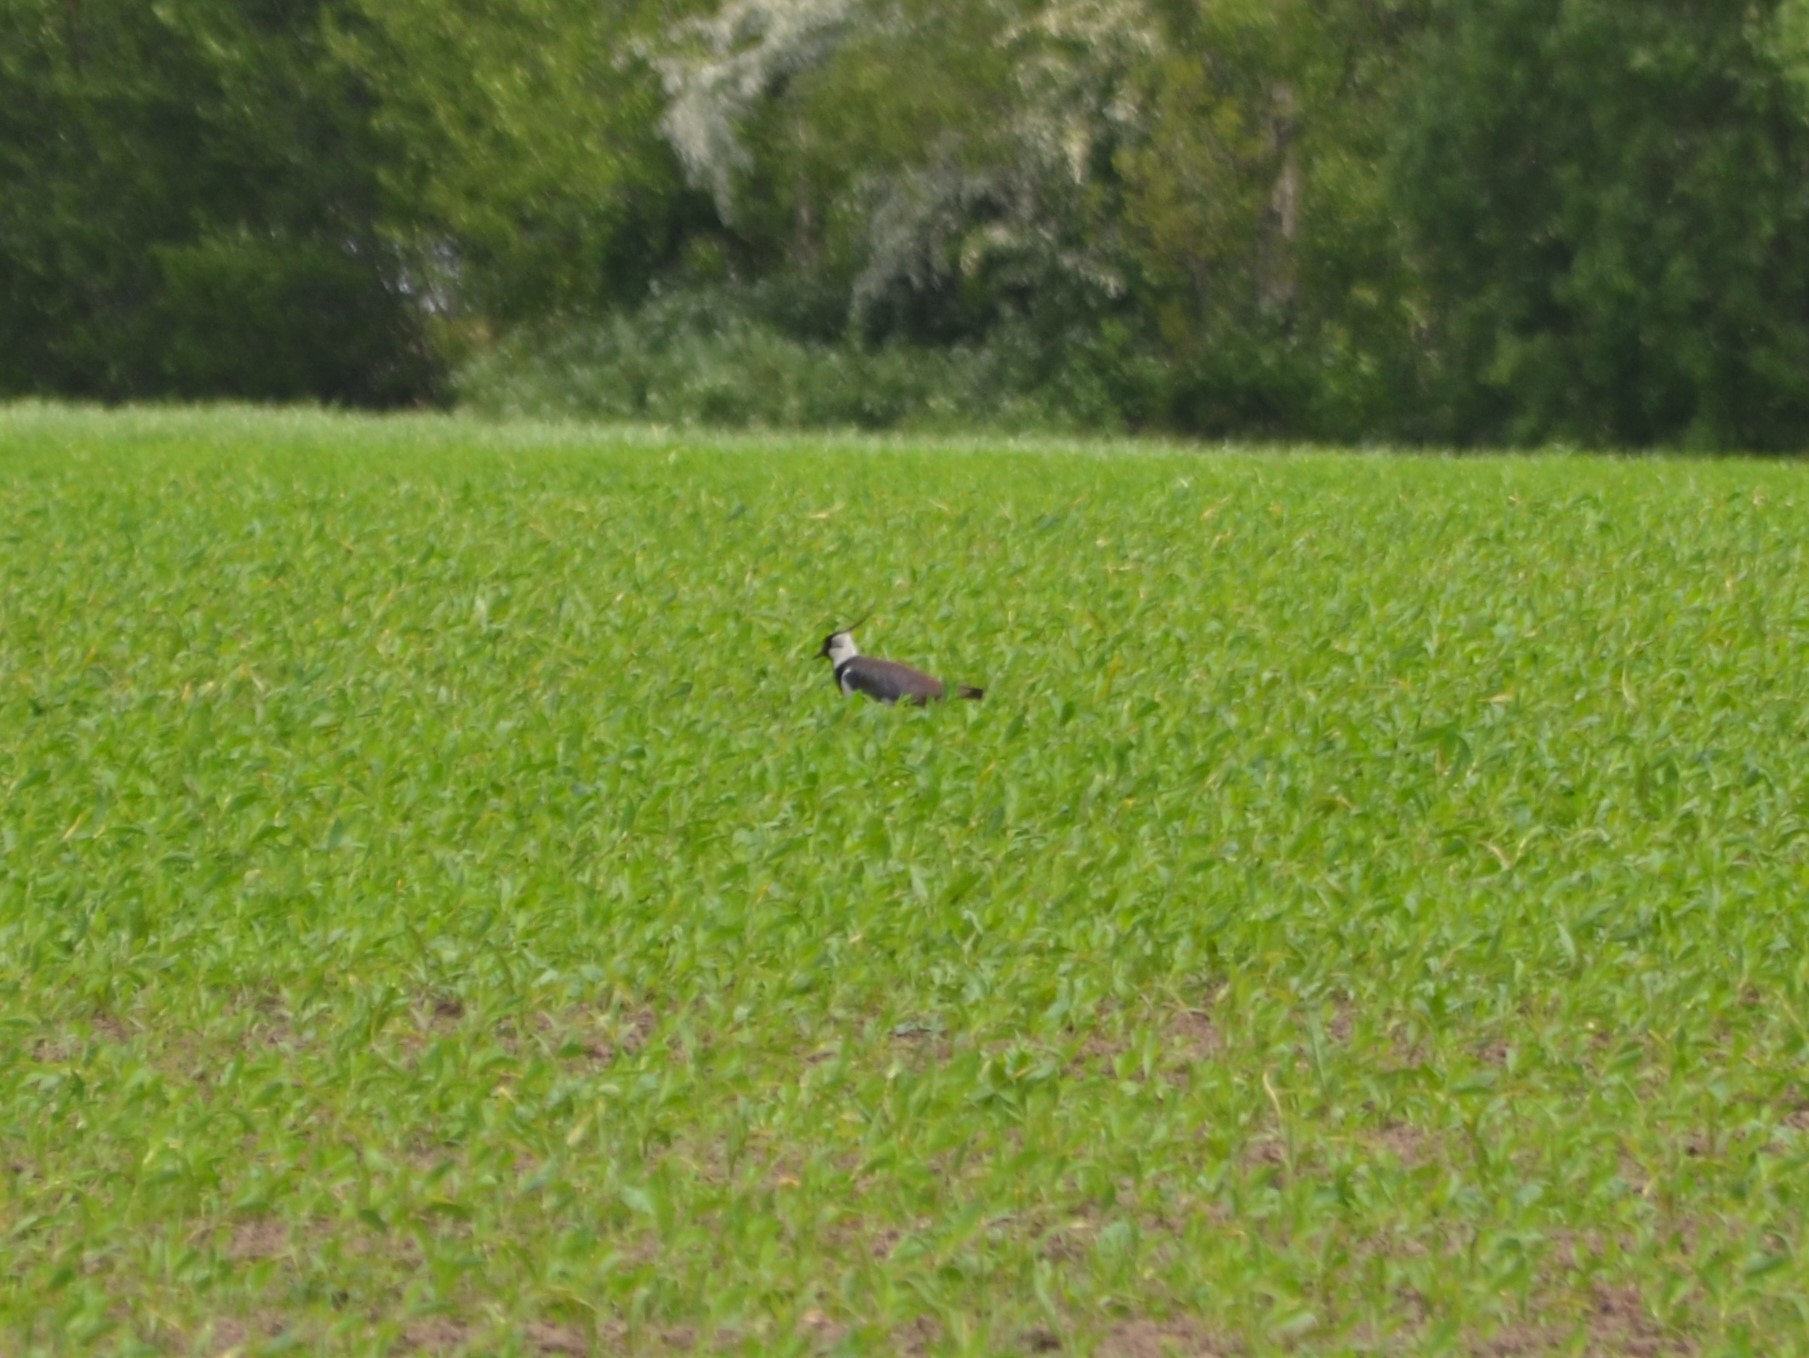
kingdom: Animalia
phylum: Chordata
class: Aves
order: Charadriiformes
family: Charadriidae
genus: Vanellus
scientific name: Vanellus vanellus
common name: Northern lapwing
